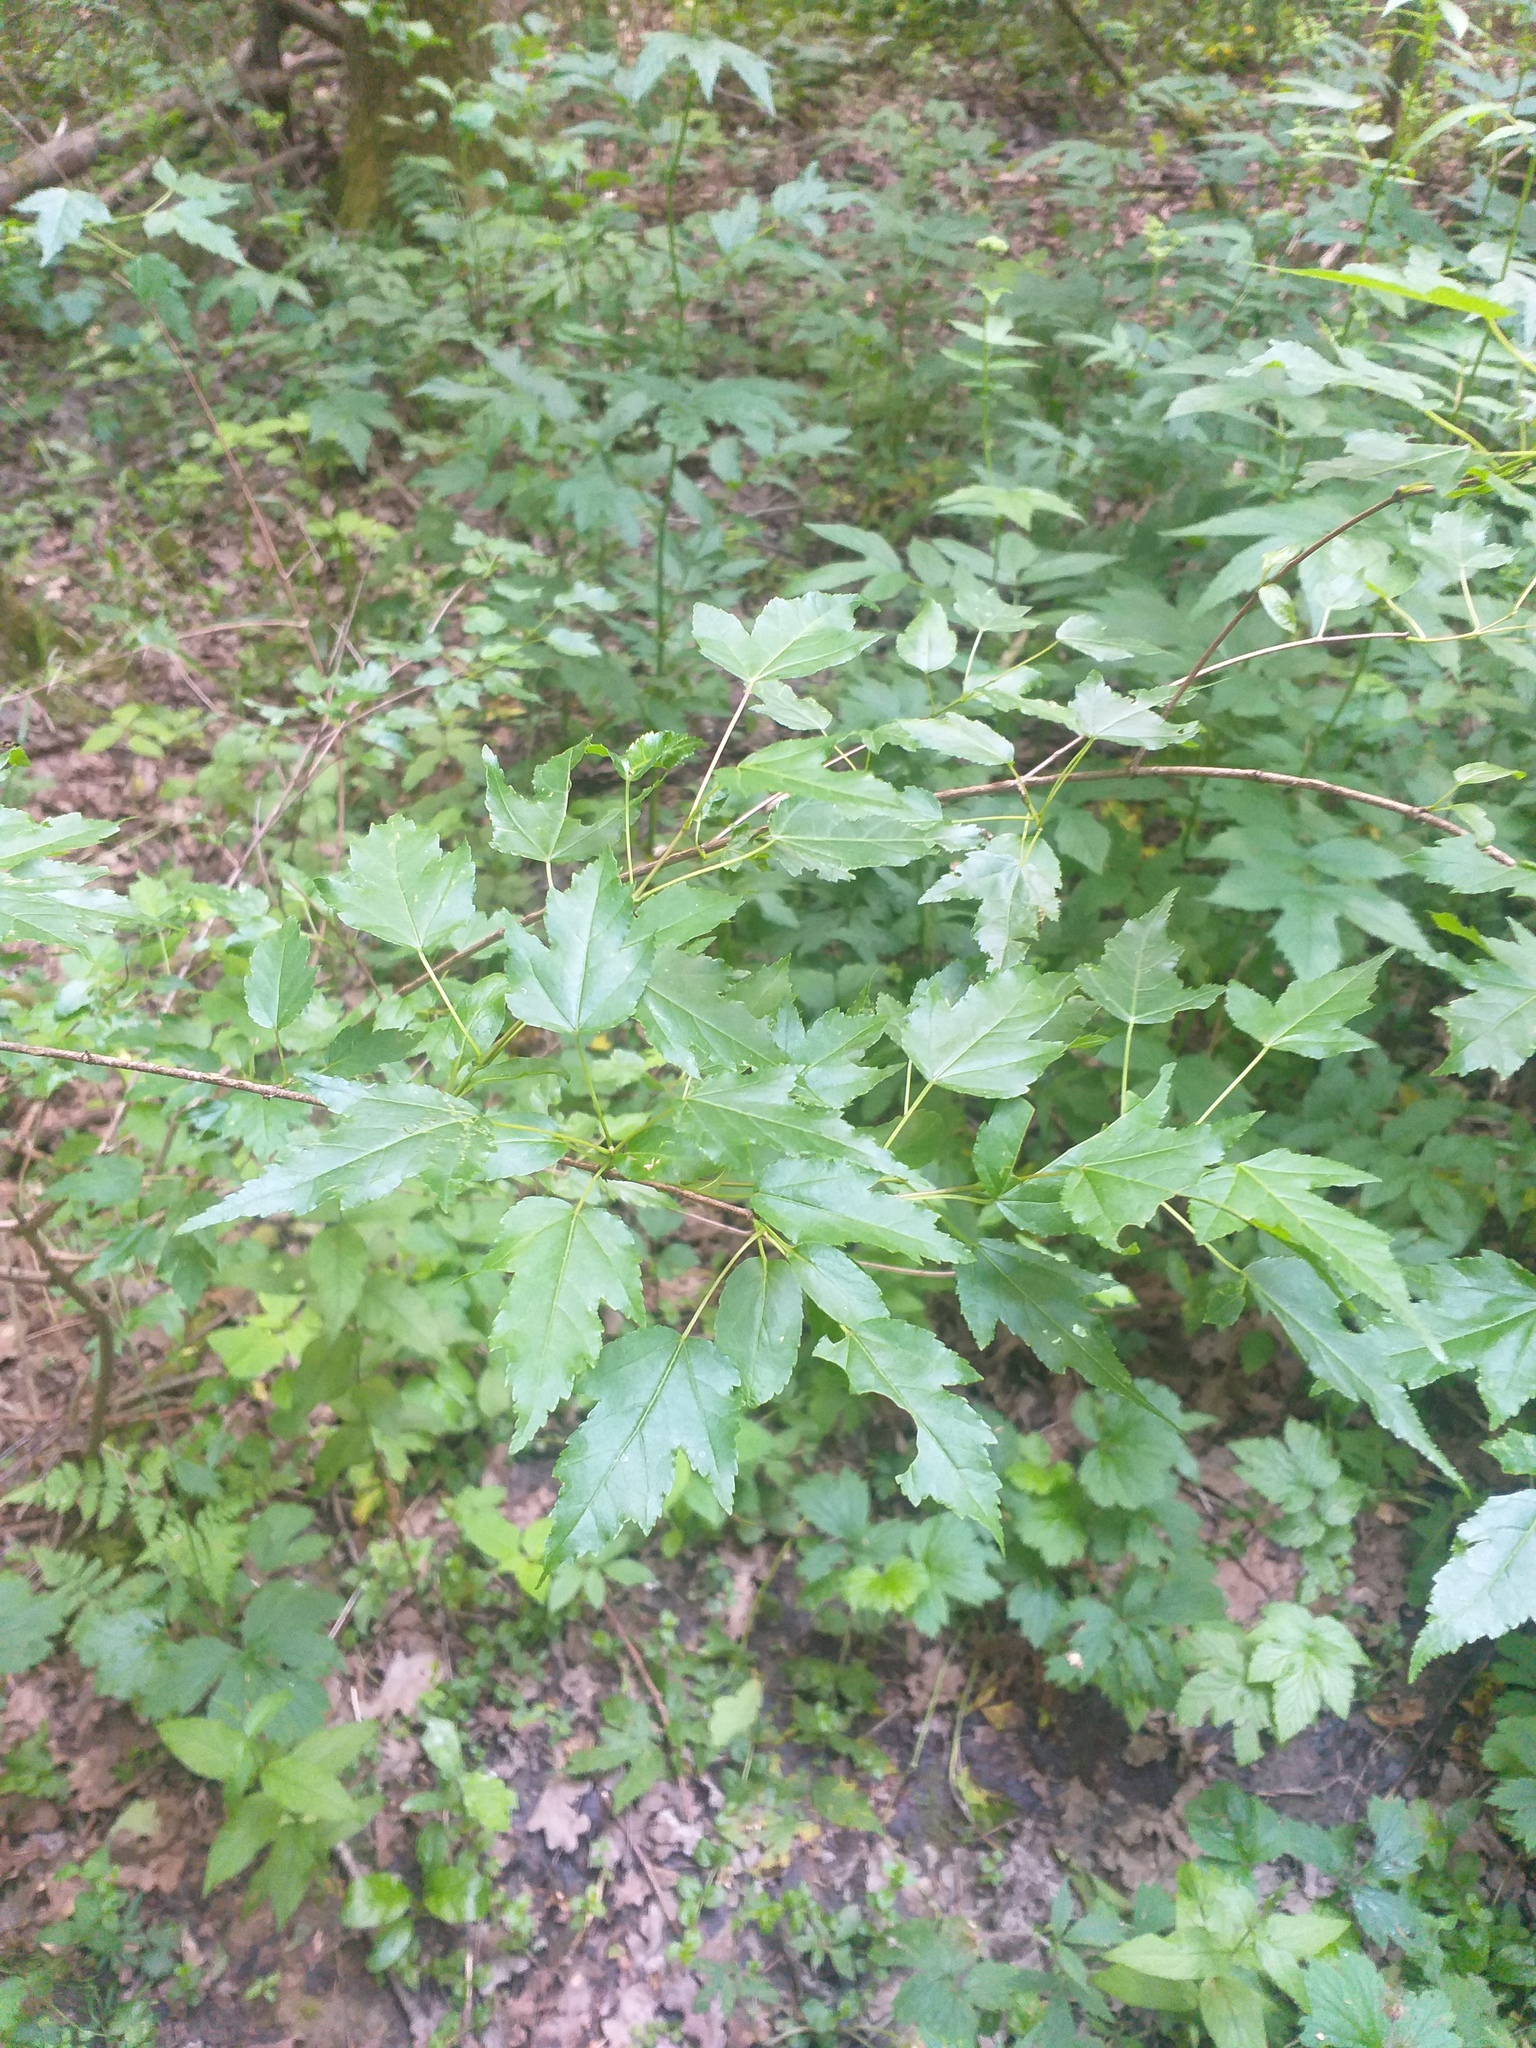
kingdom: Plantae
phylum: Tracheophyta
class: Magnoliopsida
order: Sapindales
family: Sapindaceae
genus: Acer
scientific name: Acer tataricum
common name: Tartar maple
